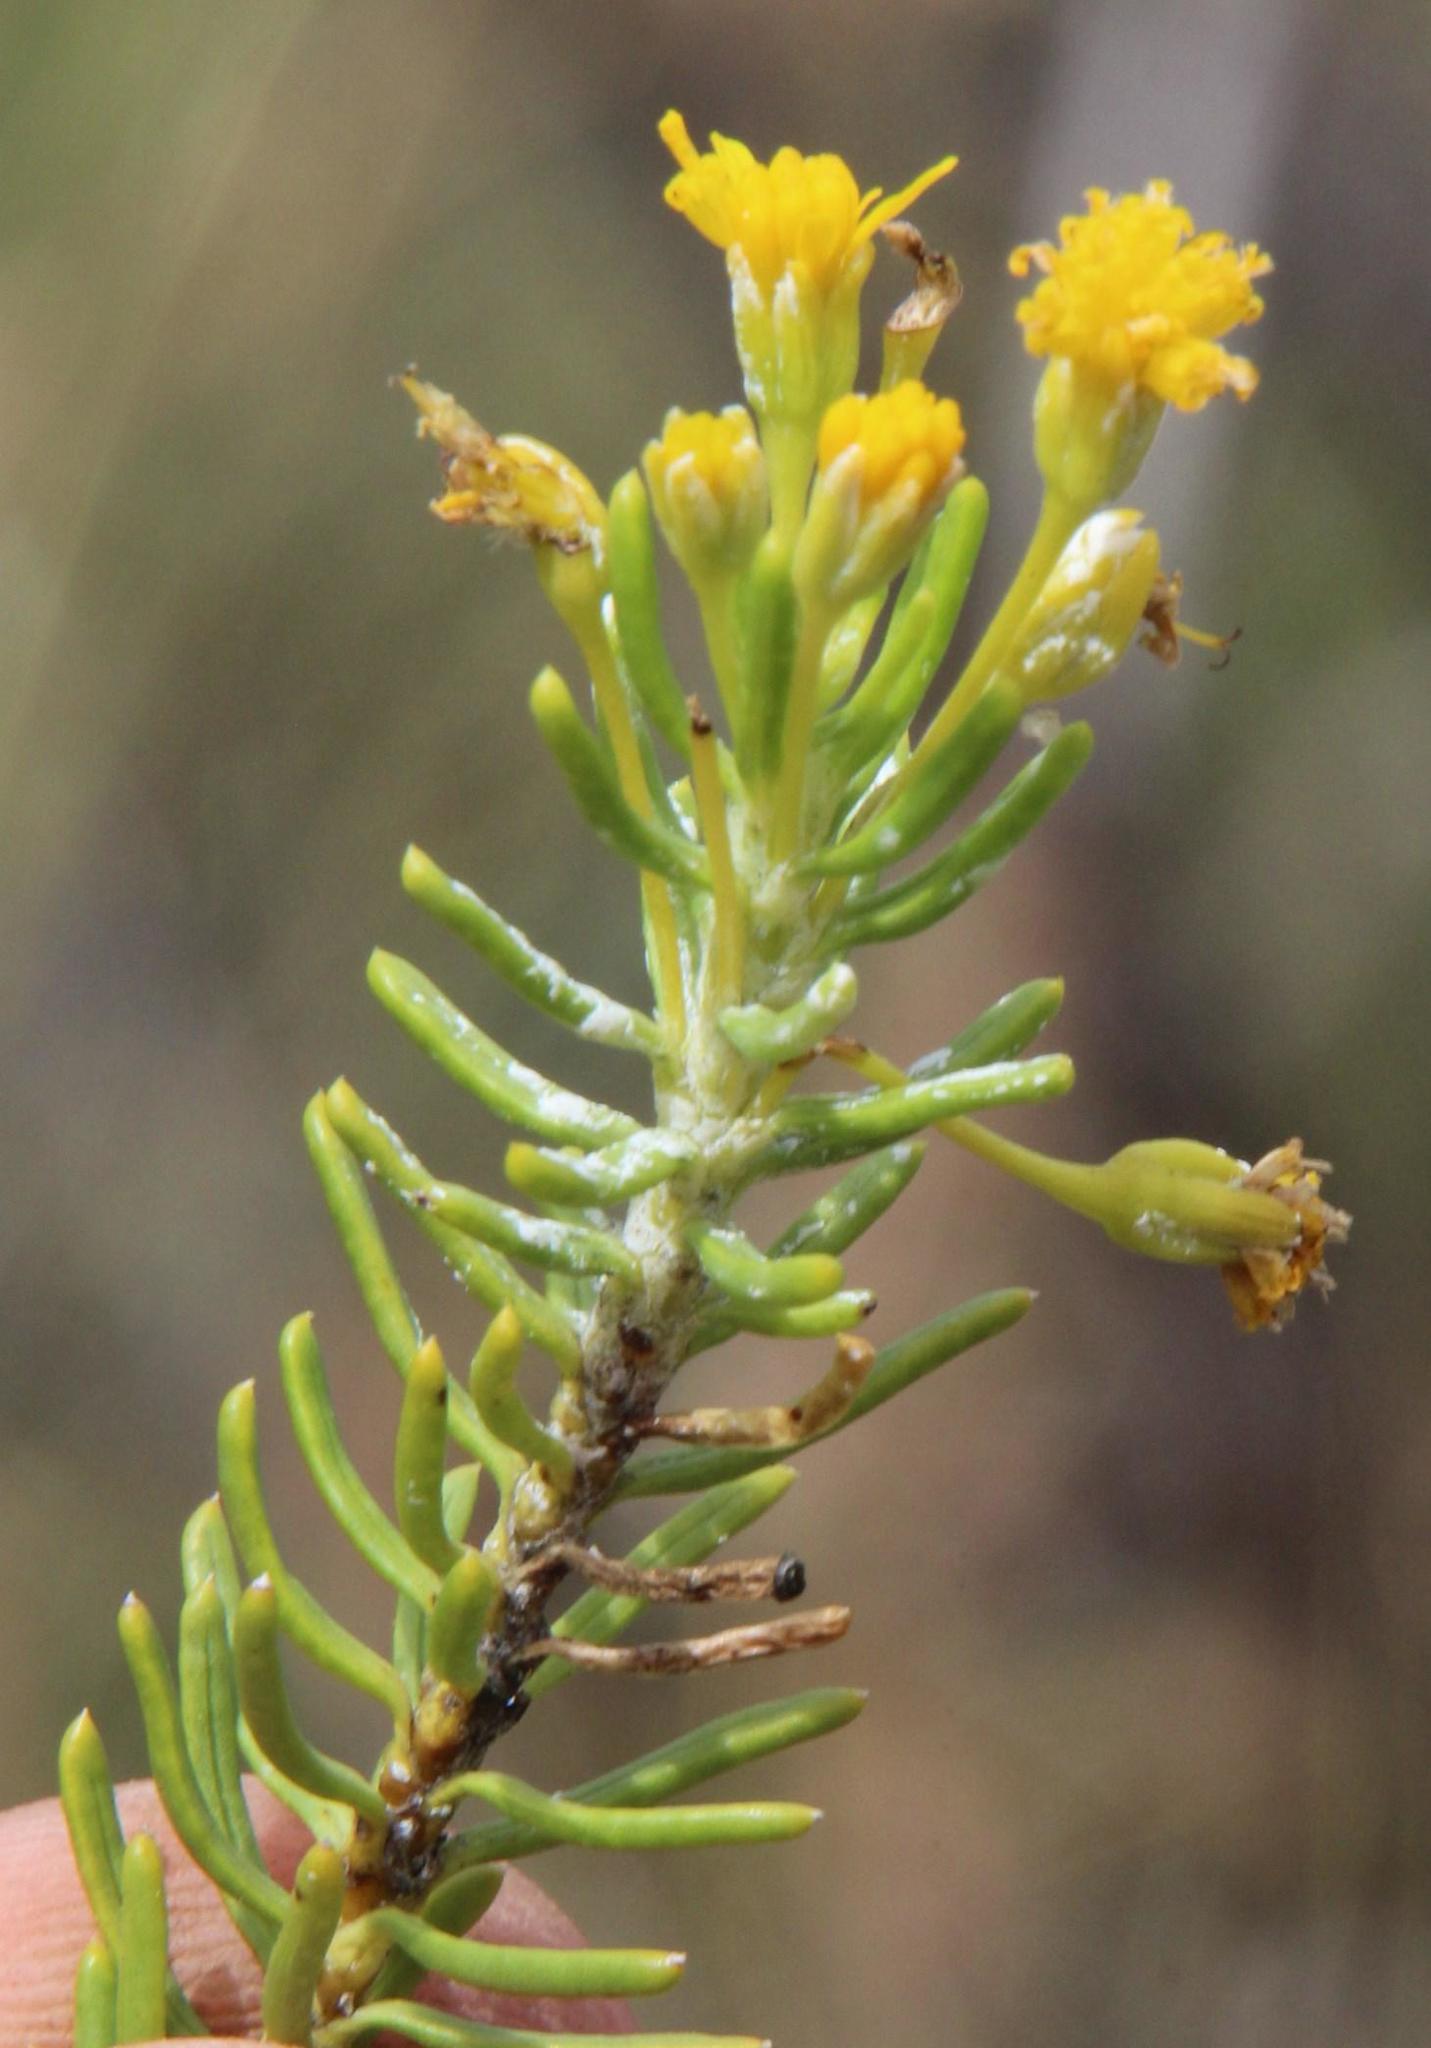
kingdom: Plantae
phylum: Tracheophyta
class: Magnoliopsida
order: Asterales
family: Asteraceae
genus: Euryops
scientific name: Euryops nodosus
